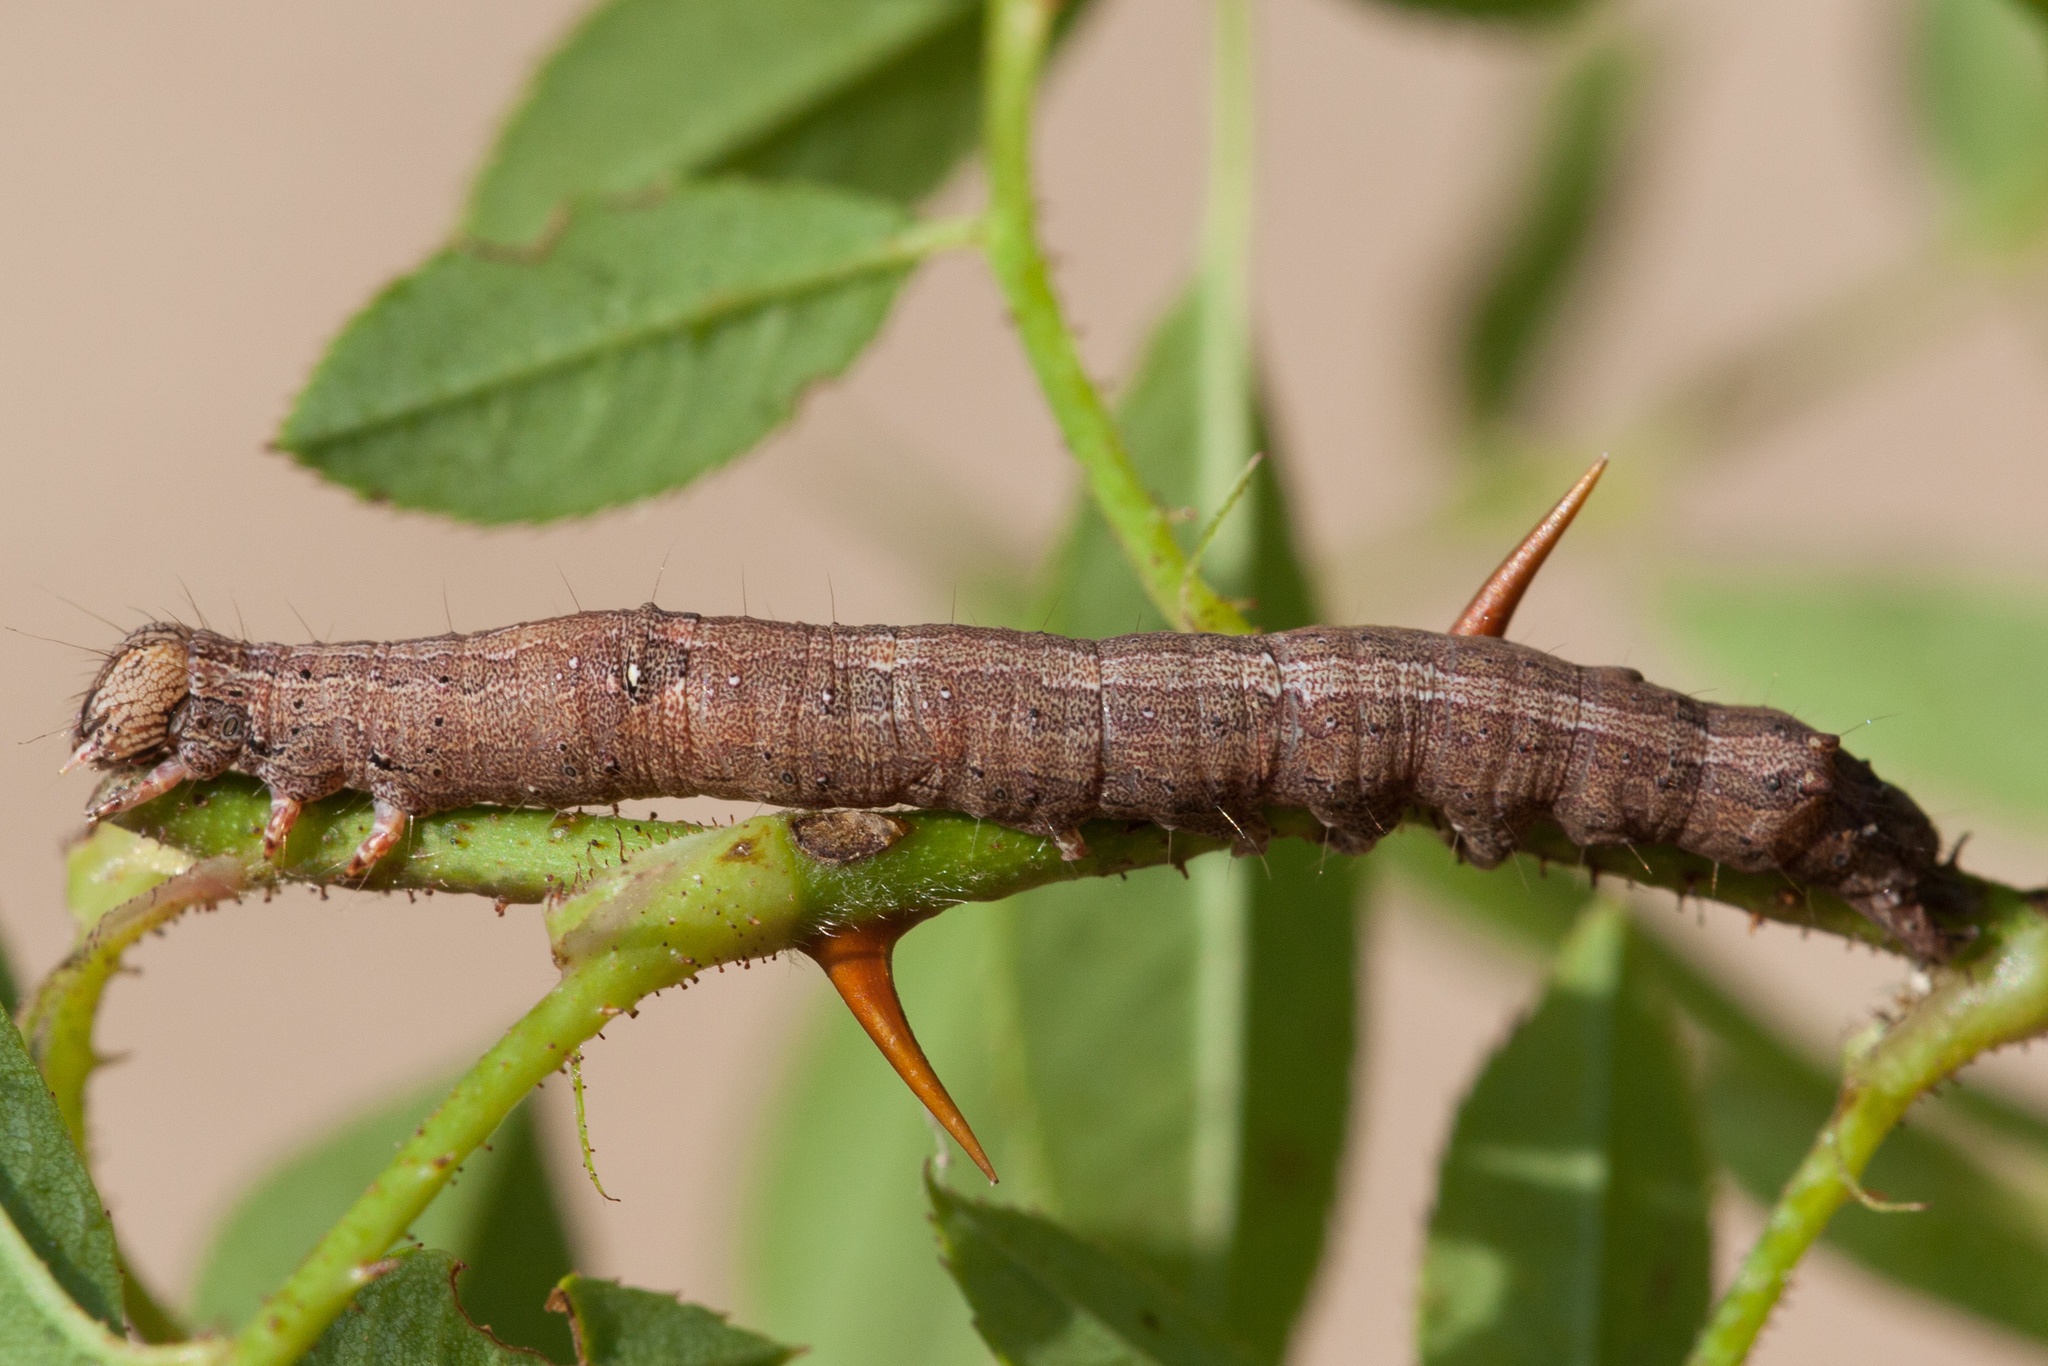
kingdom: Animalia
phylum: Arthropoda
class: Insecta
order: Lepidoptera
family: Erebidae
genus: Zale
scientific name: Zale lunata
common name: Lunate zale moth
